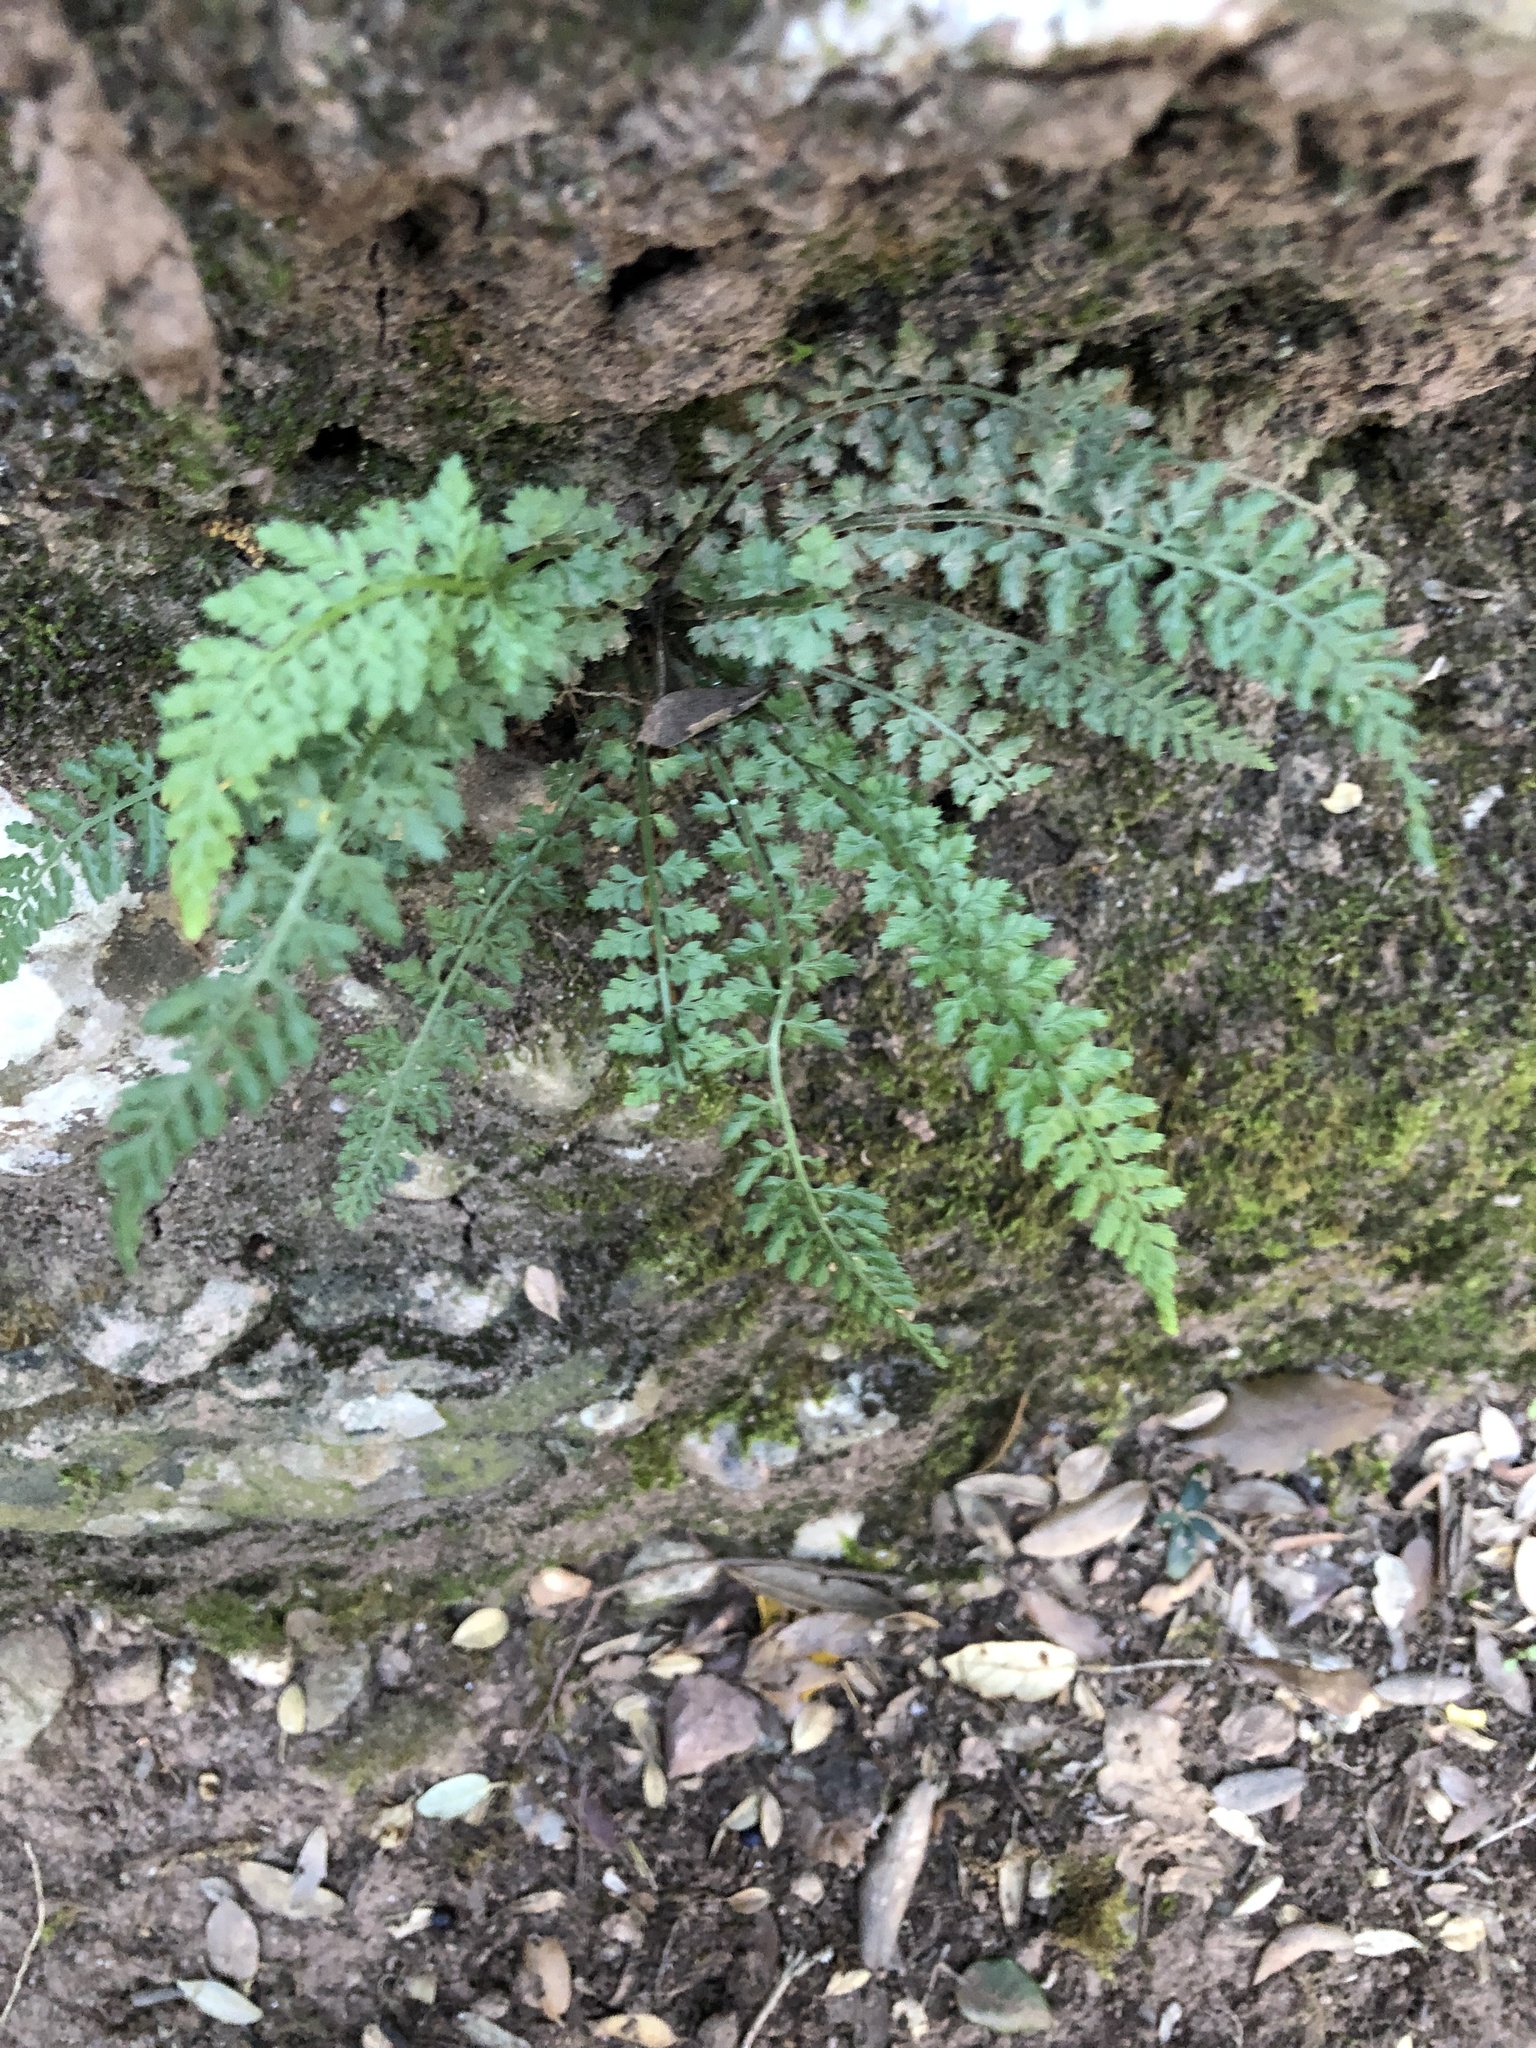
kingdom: Plantae
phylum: Tracheophyta
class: Polypodiopsida
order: Polypodiales
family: Aspleniaceae
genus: Asplenium
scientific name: Asplenium fontanum
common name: Fountain spleenwort
